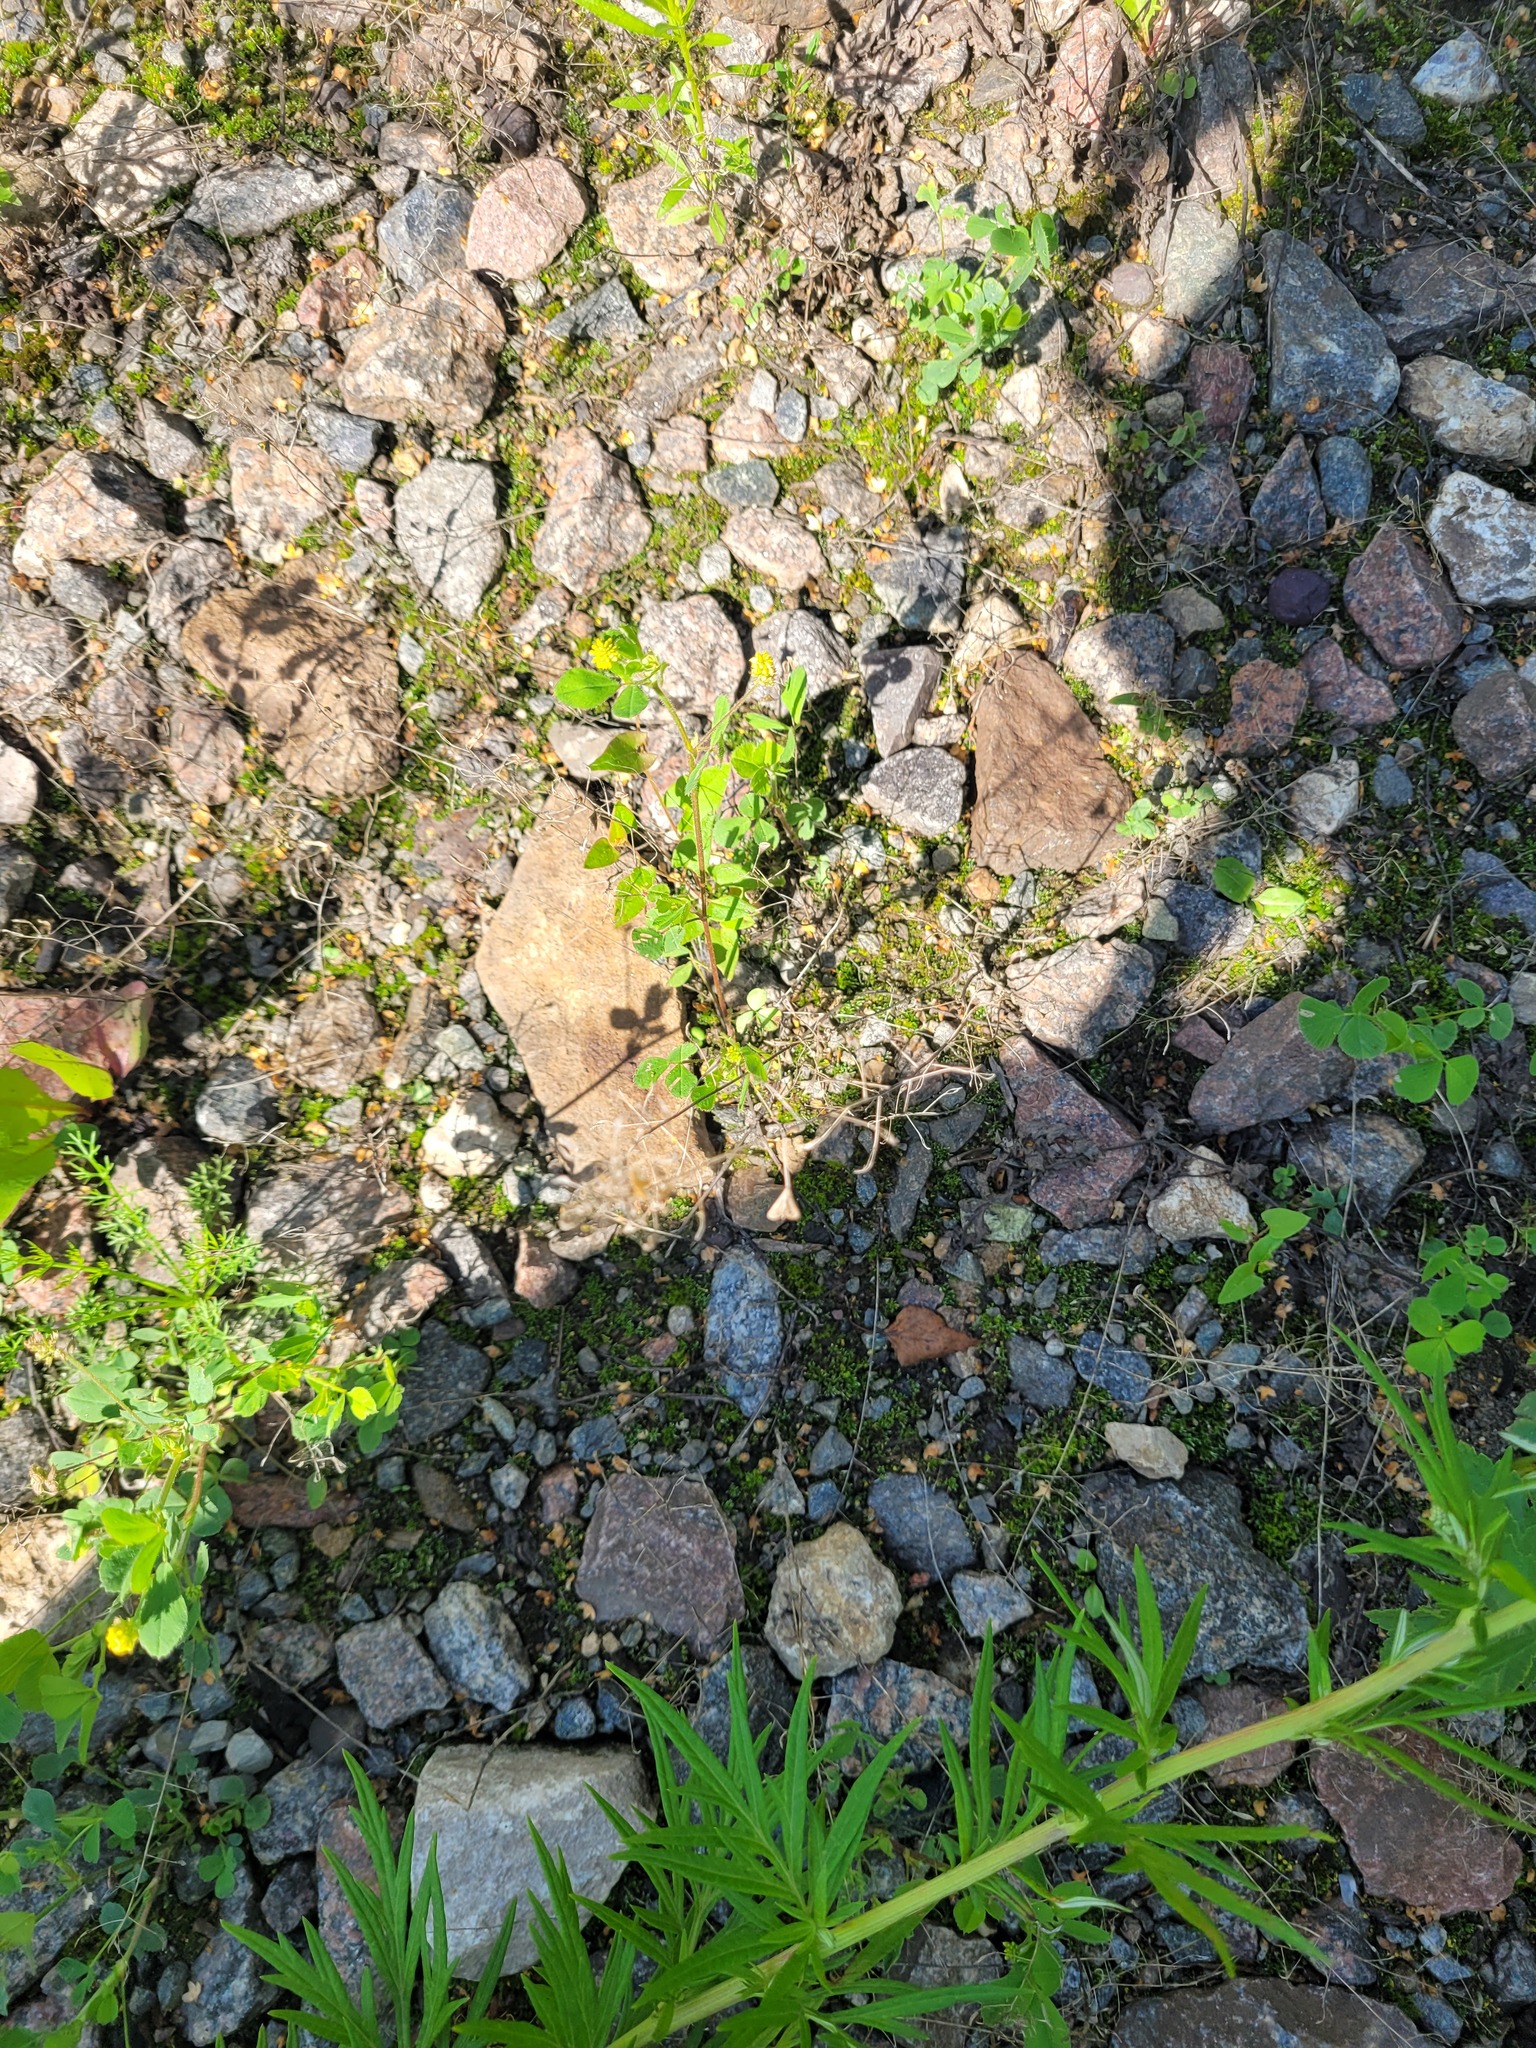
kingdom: Plantae
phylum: Tracheophyta
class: Magnoliopsida
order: Brassicales
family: Brassicaceae
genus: Capsella
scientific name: Capsella bursa-pastoris
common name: Shepherd's purse
